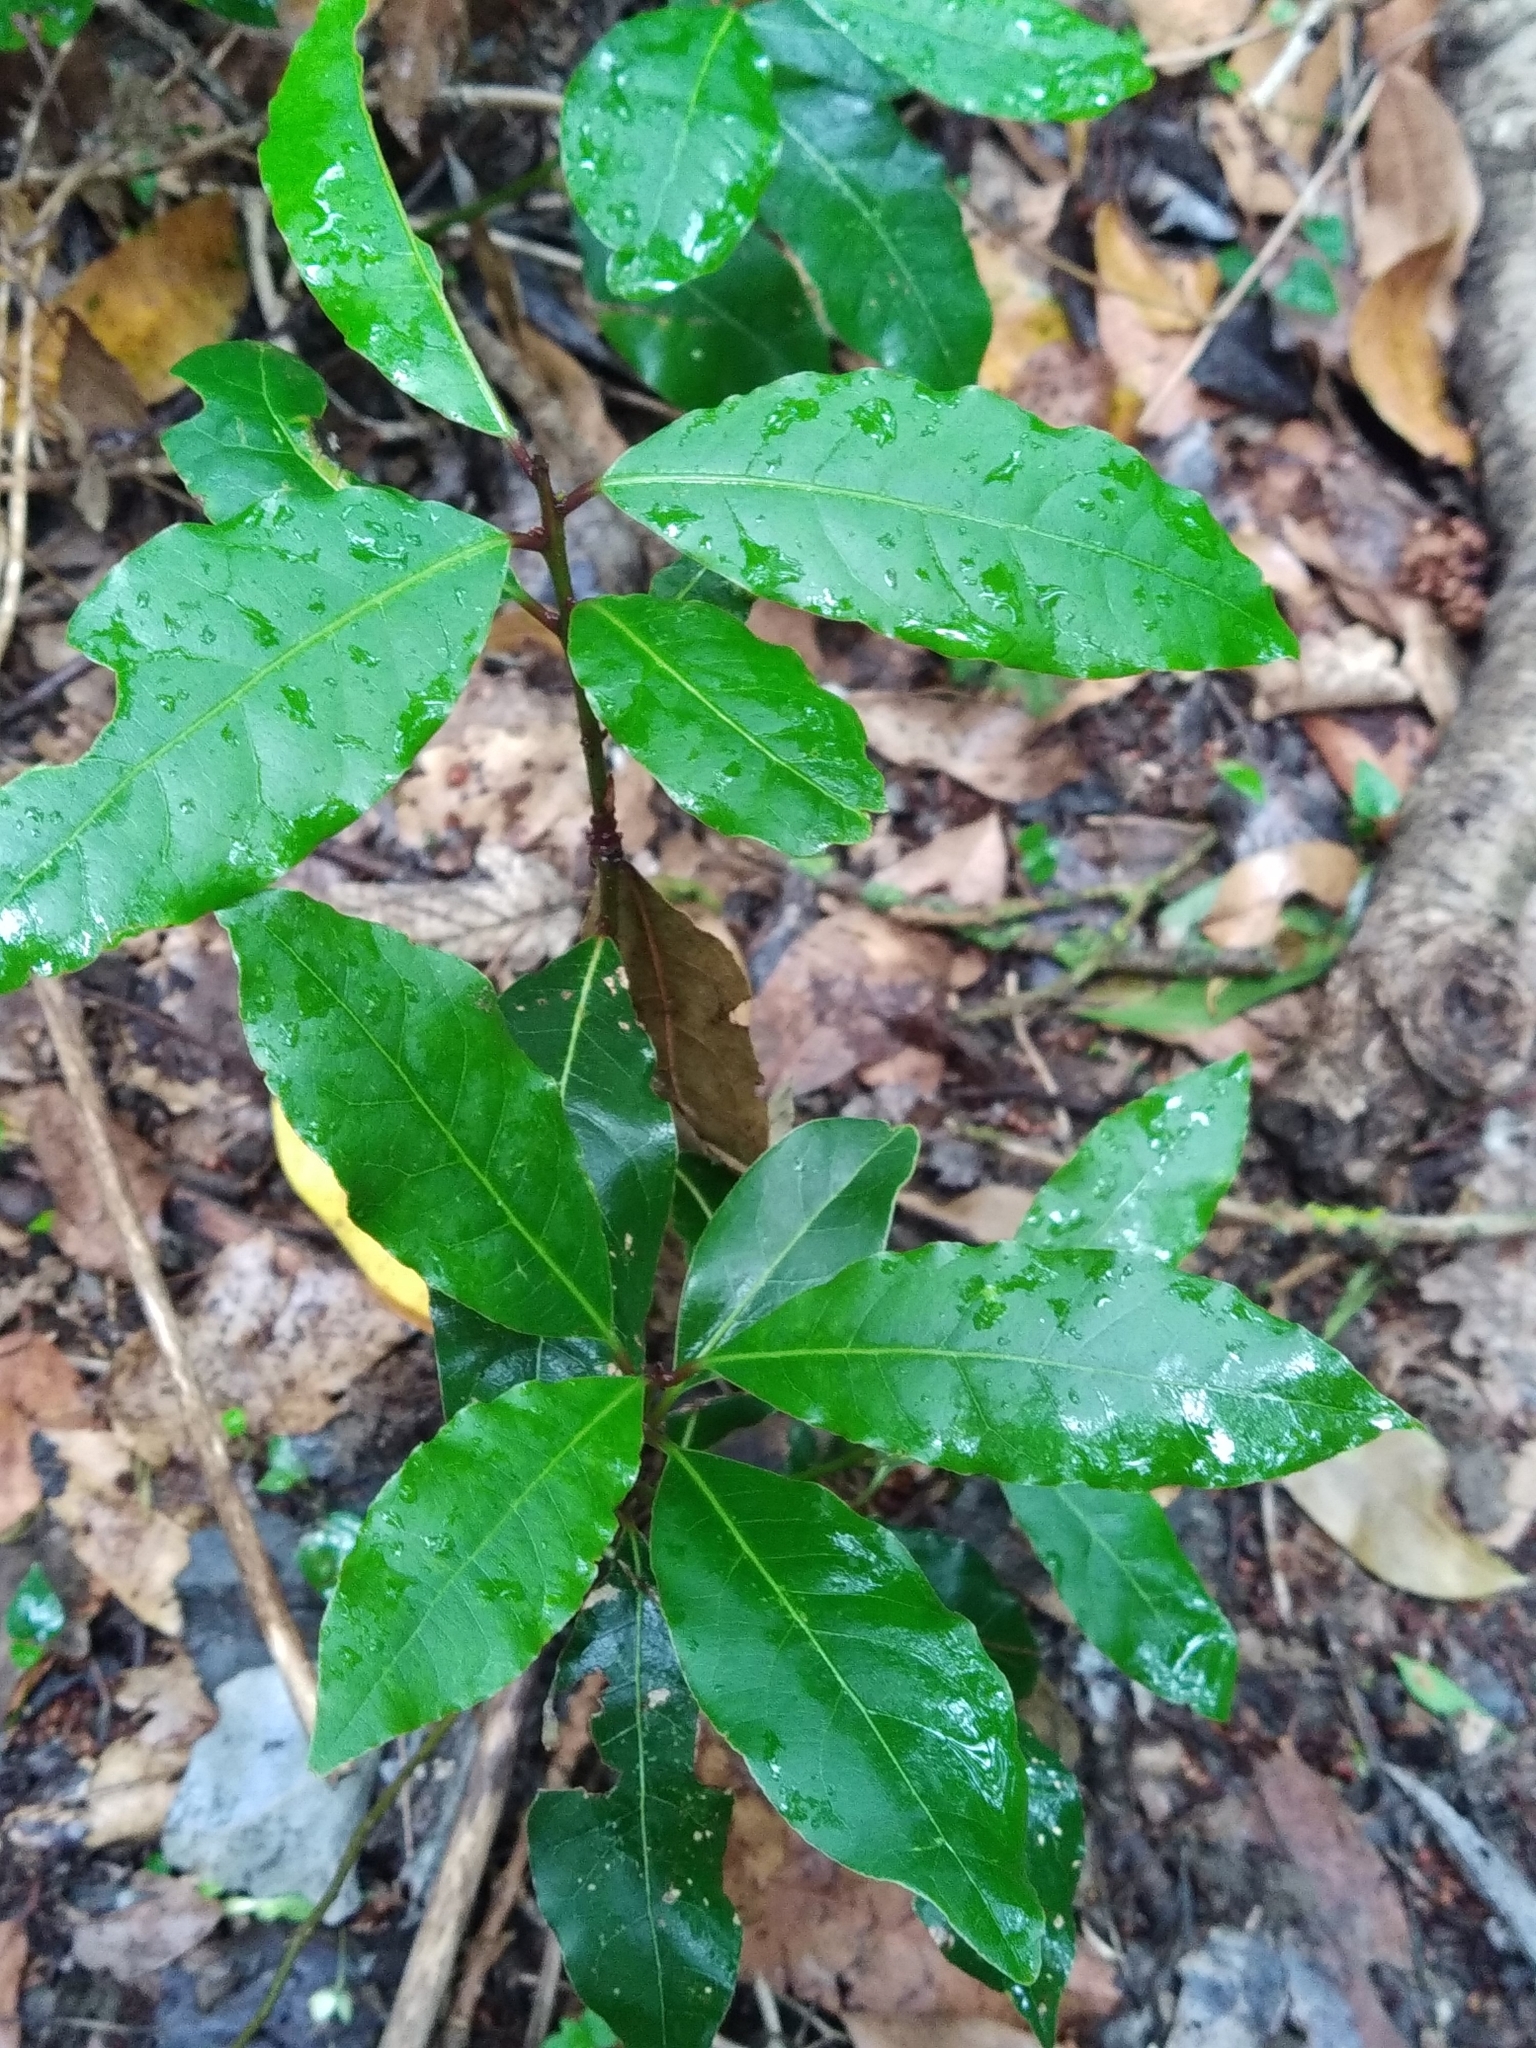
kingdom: Plantae
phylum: Tracheophyta
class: Magnoliopsida
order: Laurales
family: Lauraceae
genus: Laurus
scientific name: Laurus nobilis
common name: Bay
